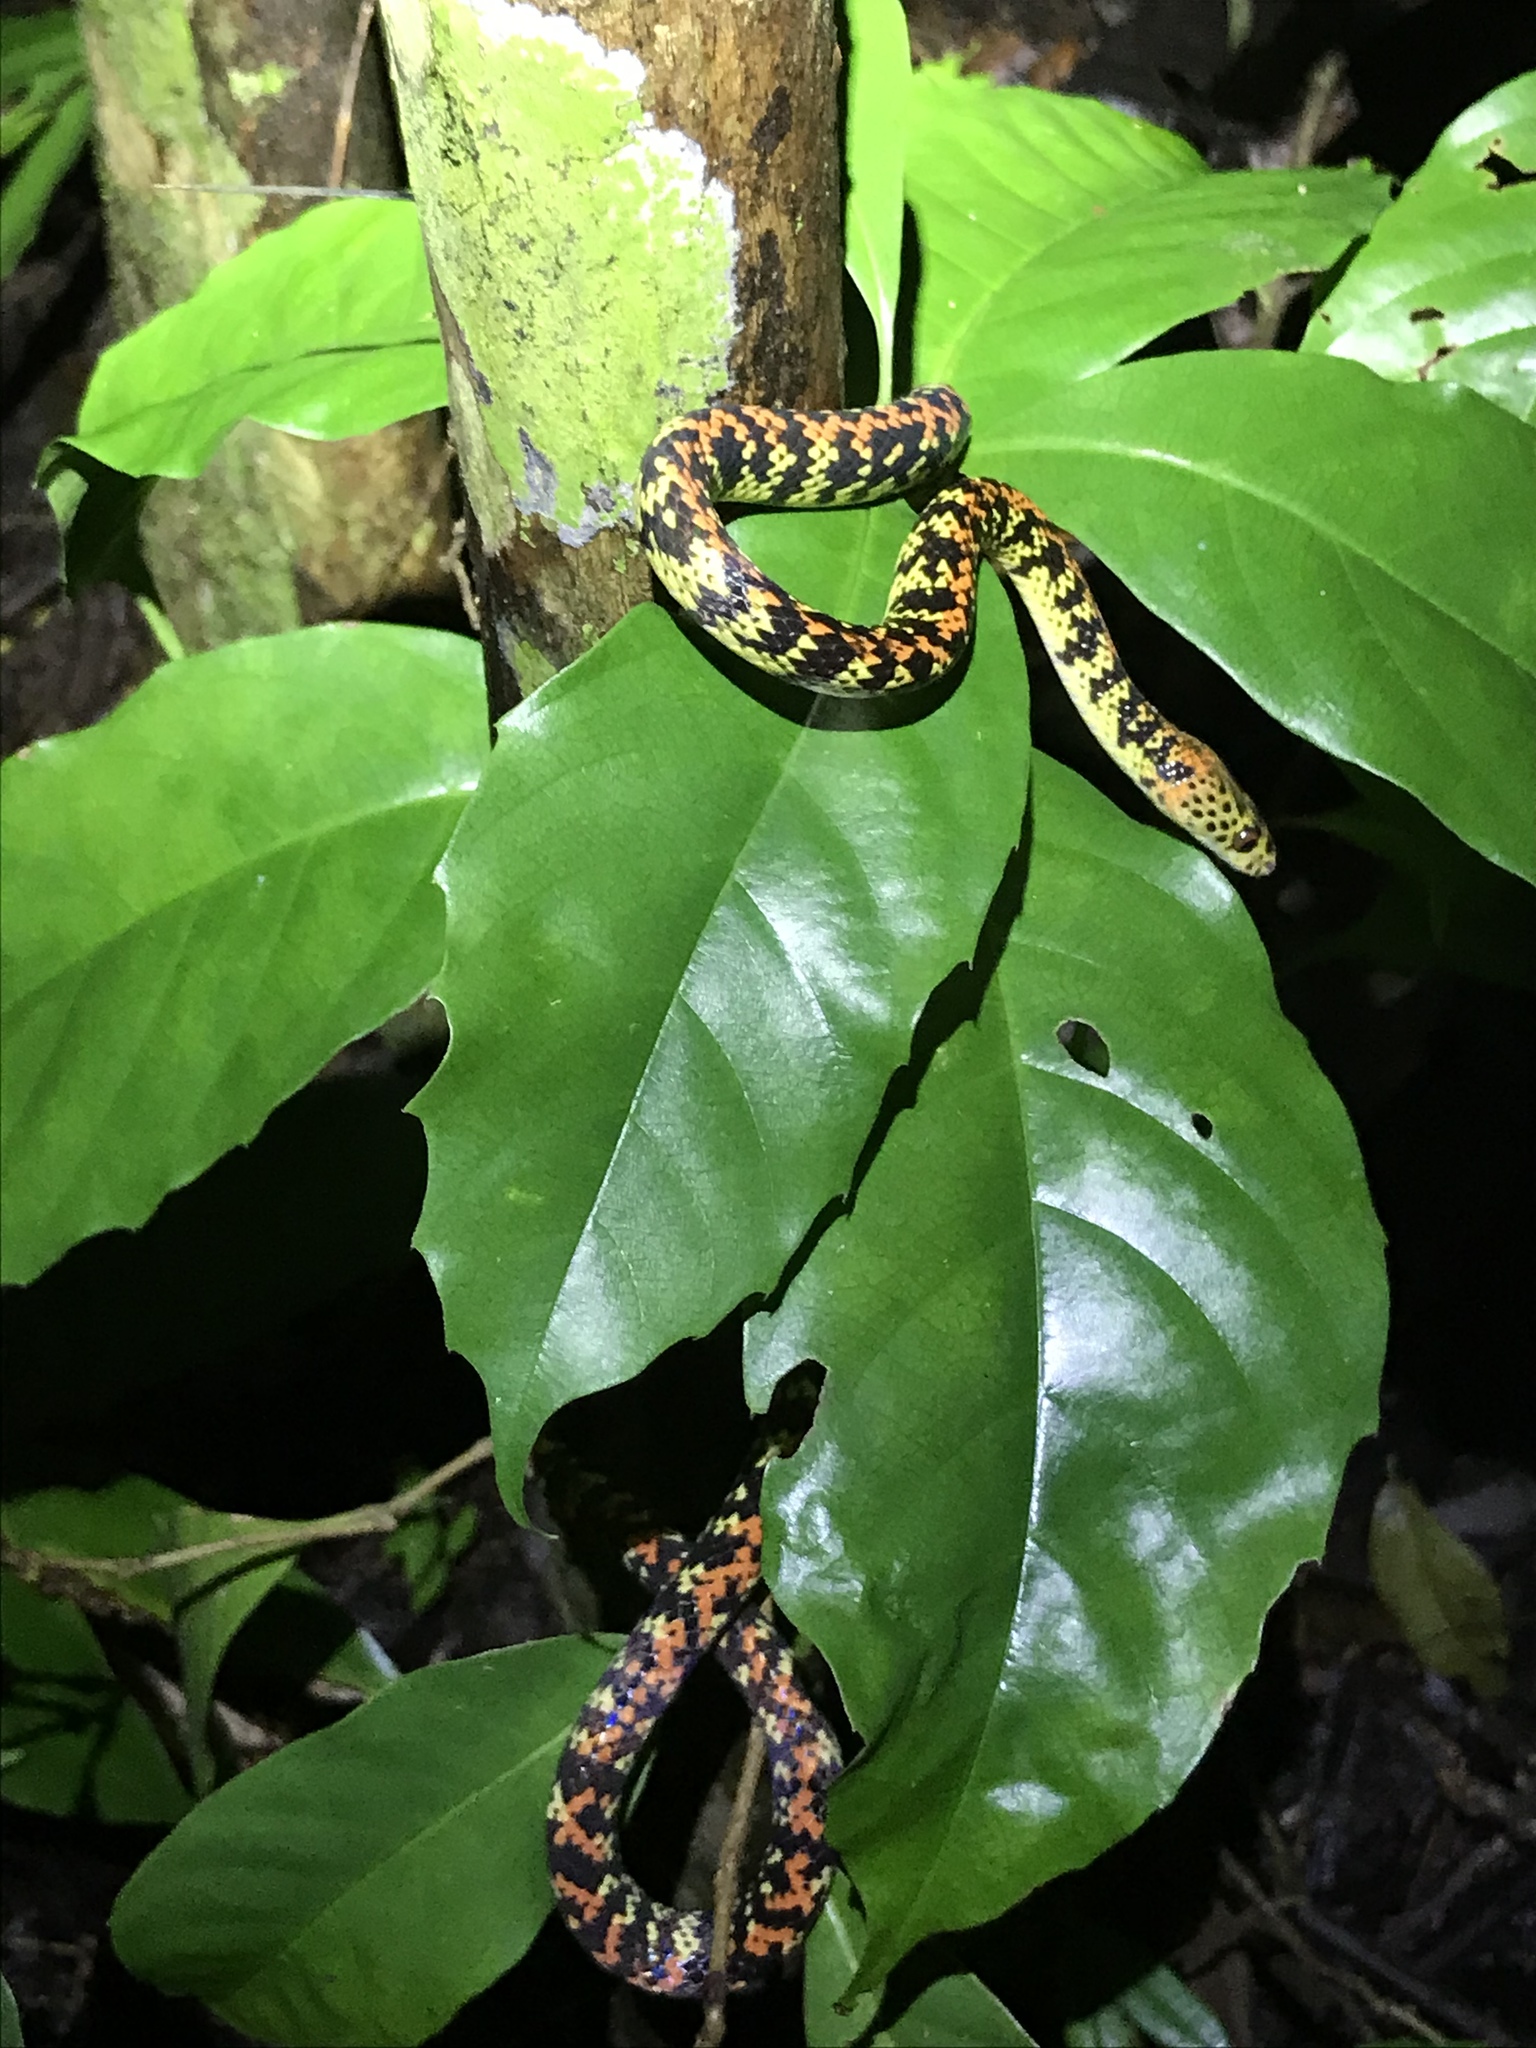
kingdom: Animalia
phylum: Chordata
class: Squamata
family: Colubridae
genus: Siphlophis
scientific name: Siphlophis cervinus
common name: Panama spotted night snake
